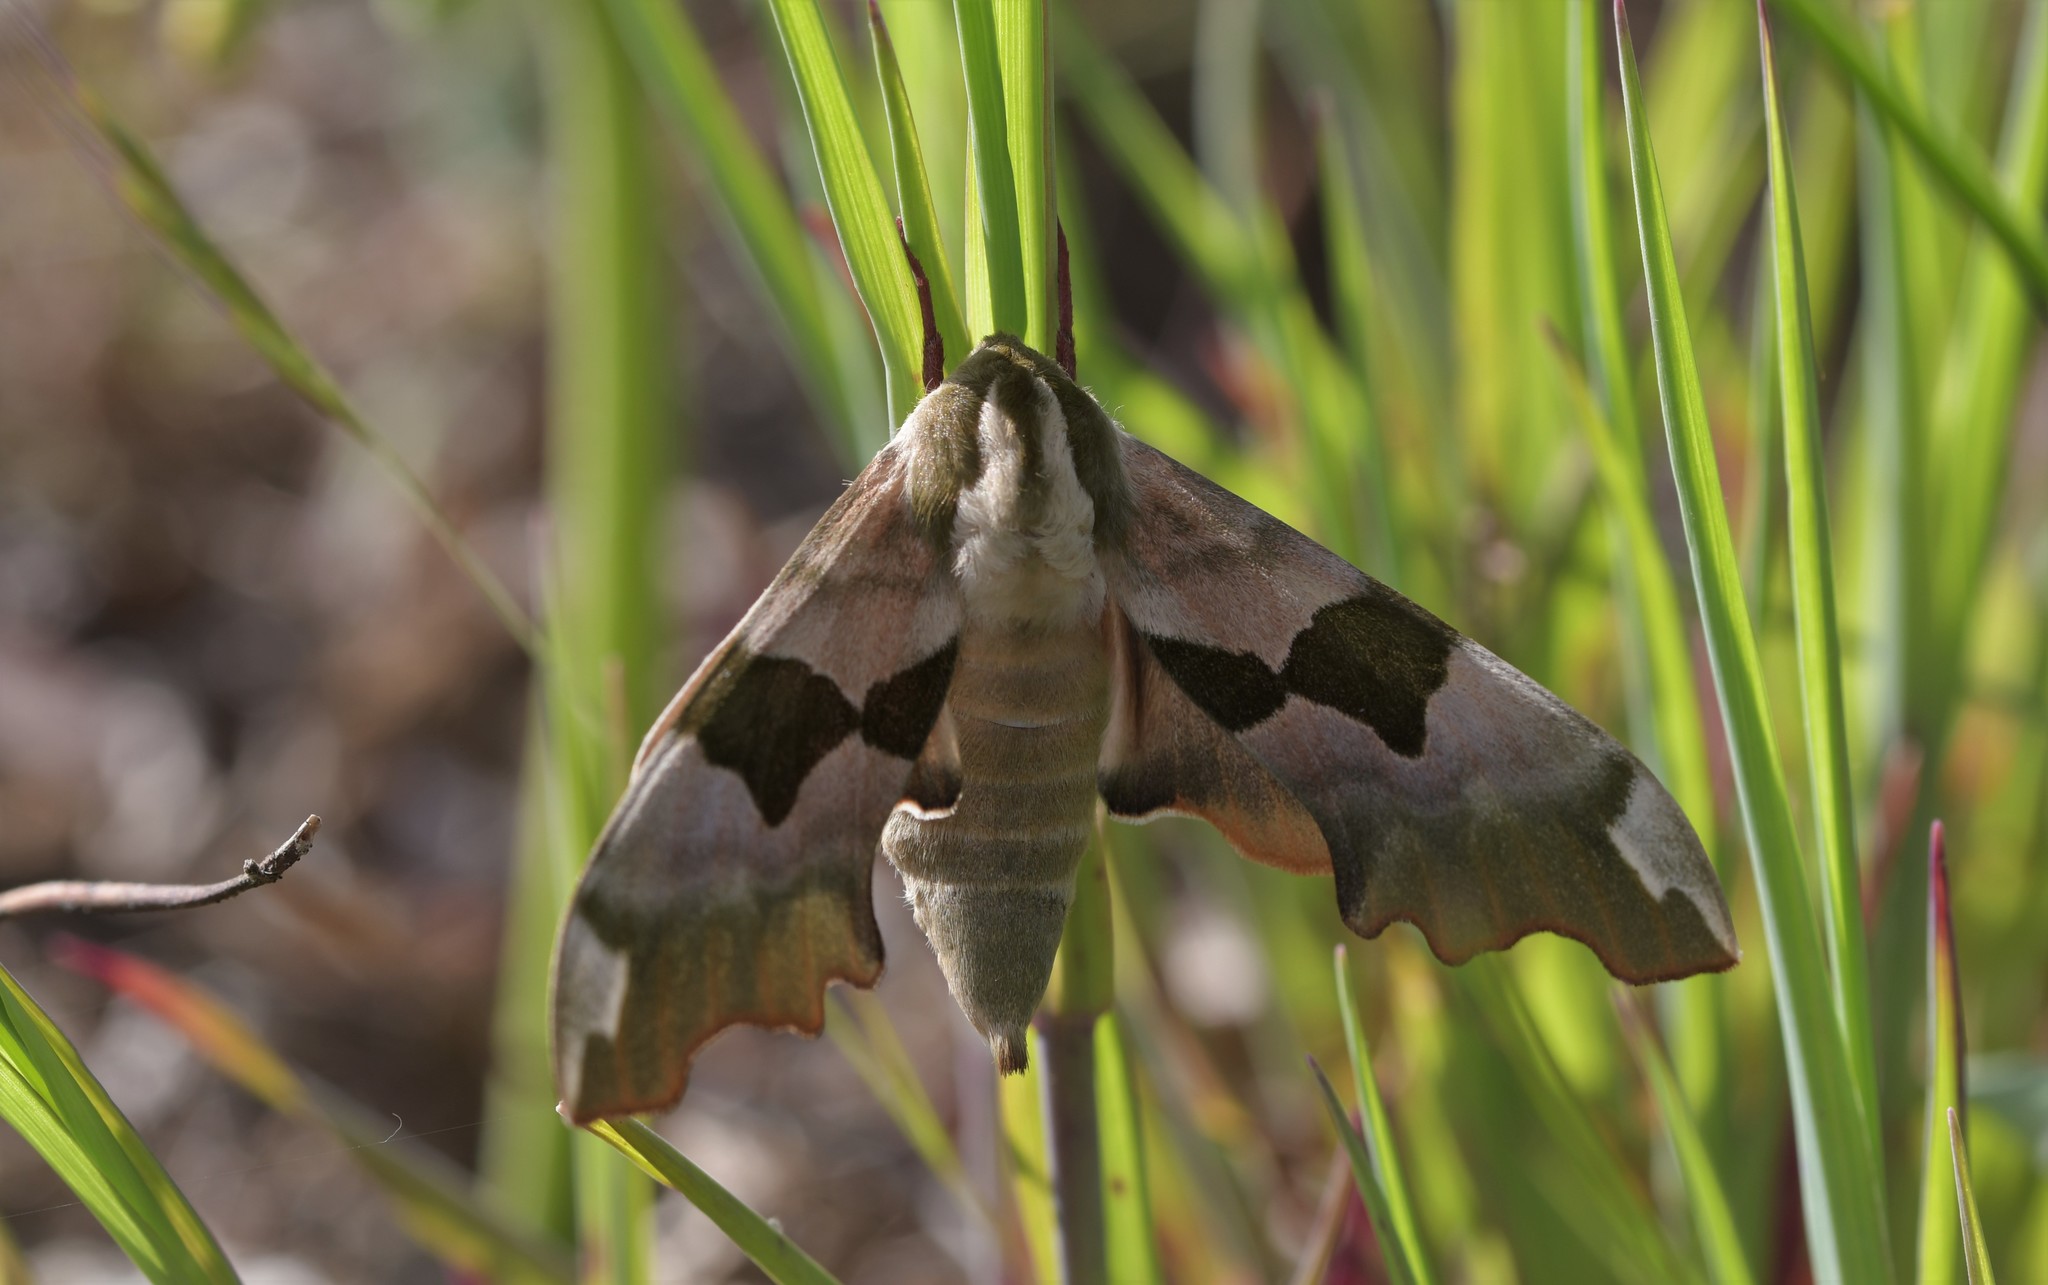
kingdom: Animalia
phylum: Arthropoda
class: Insecta
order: Lepidoptera
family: Sphingidae
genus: Mimas
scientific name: Mimas tiliae
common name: Lime hawk-moth
